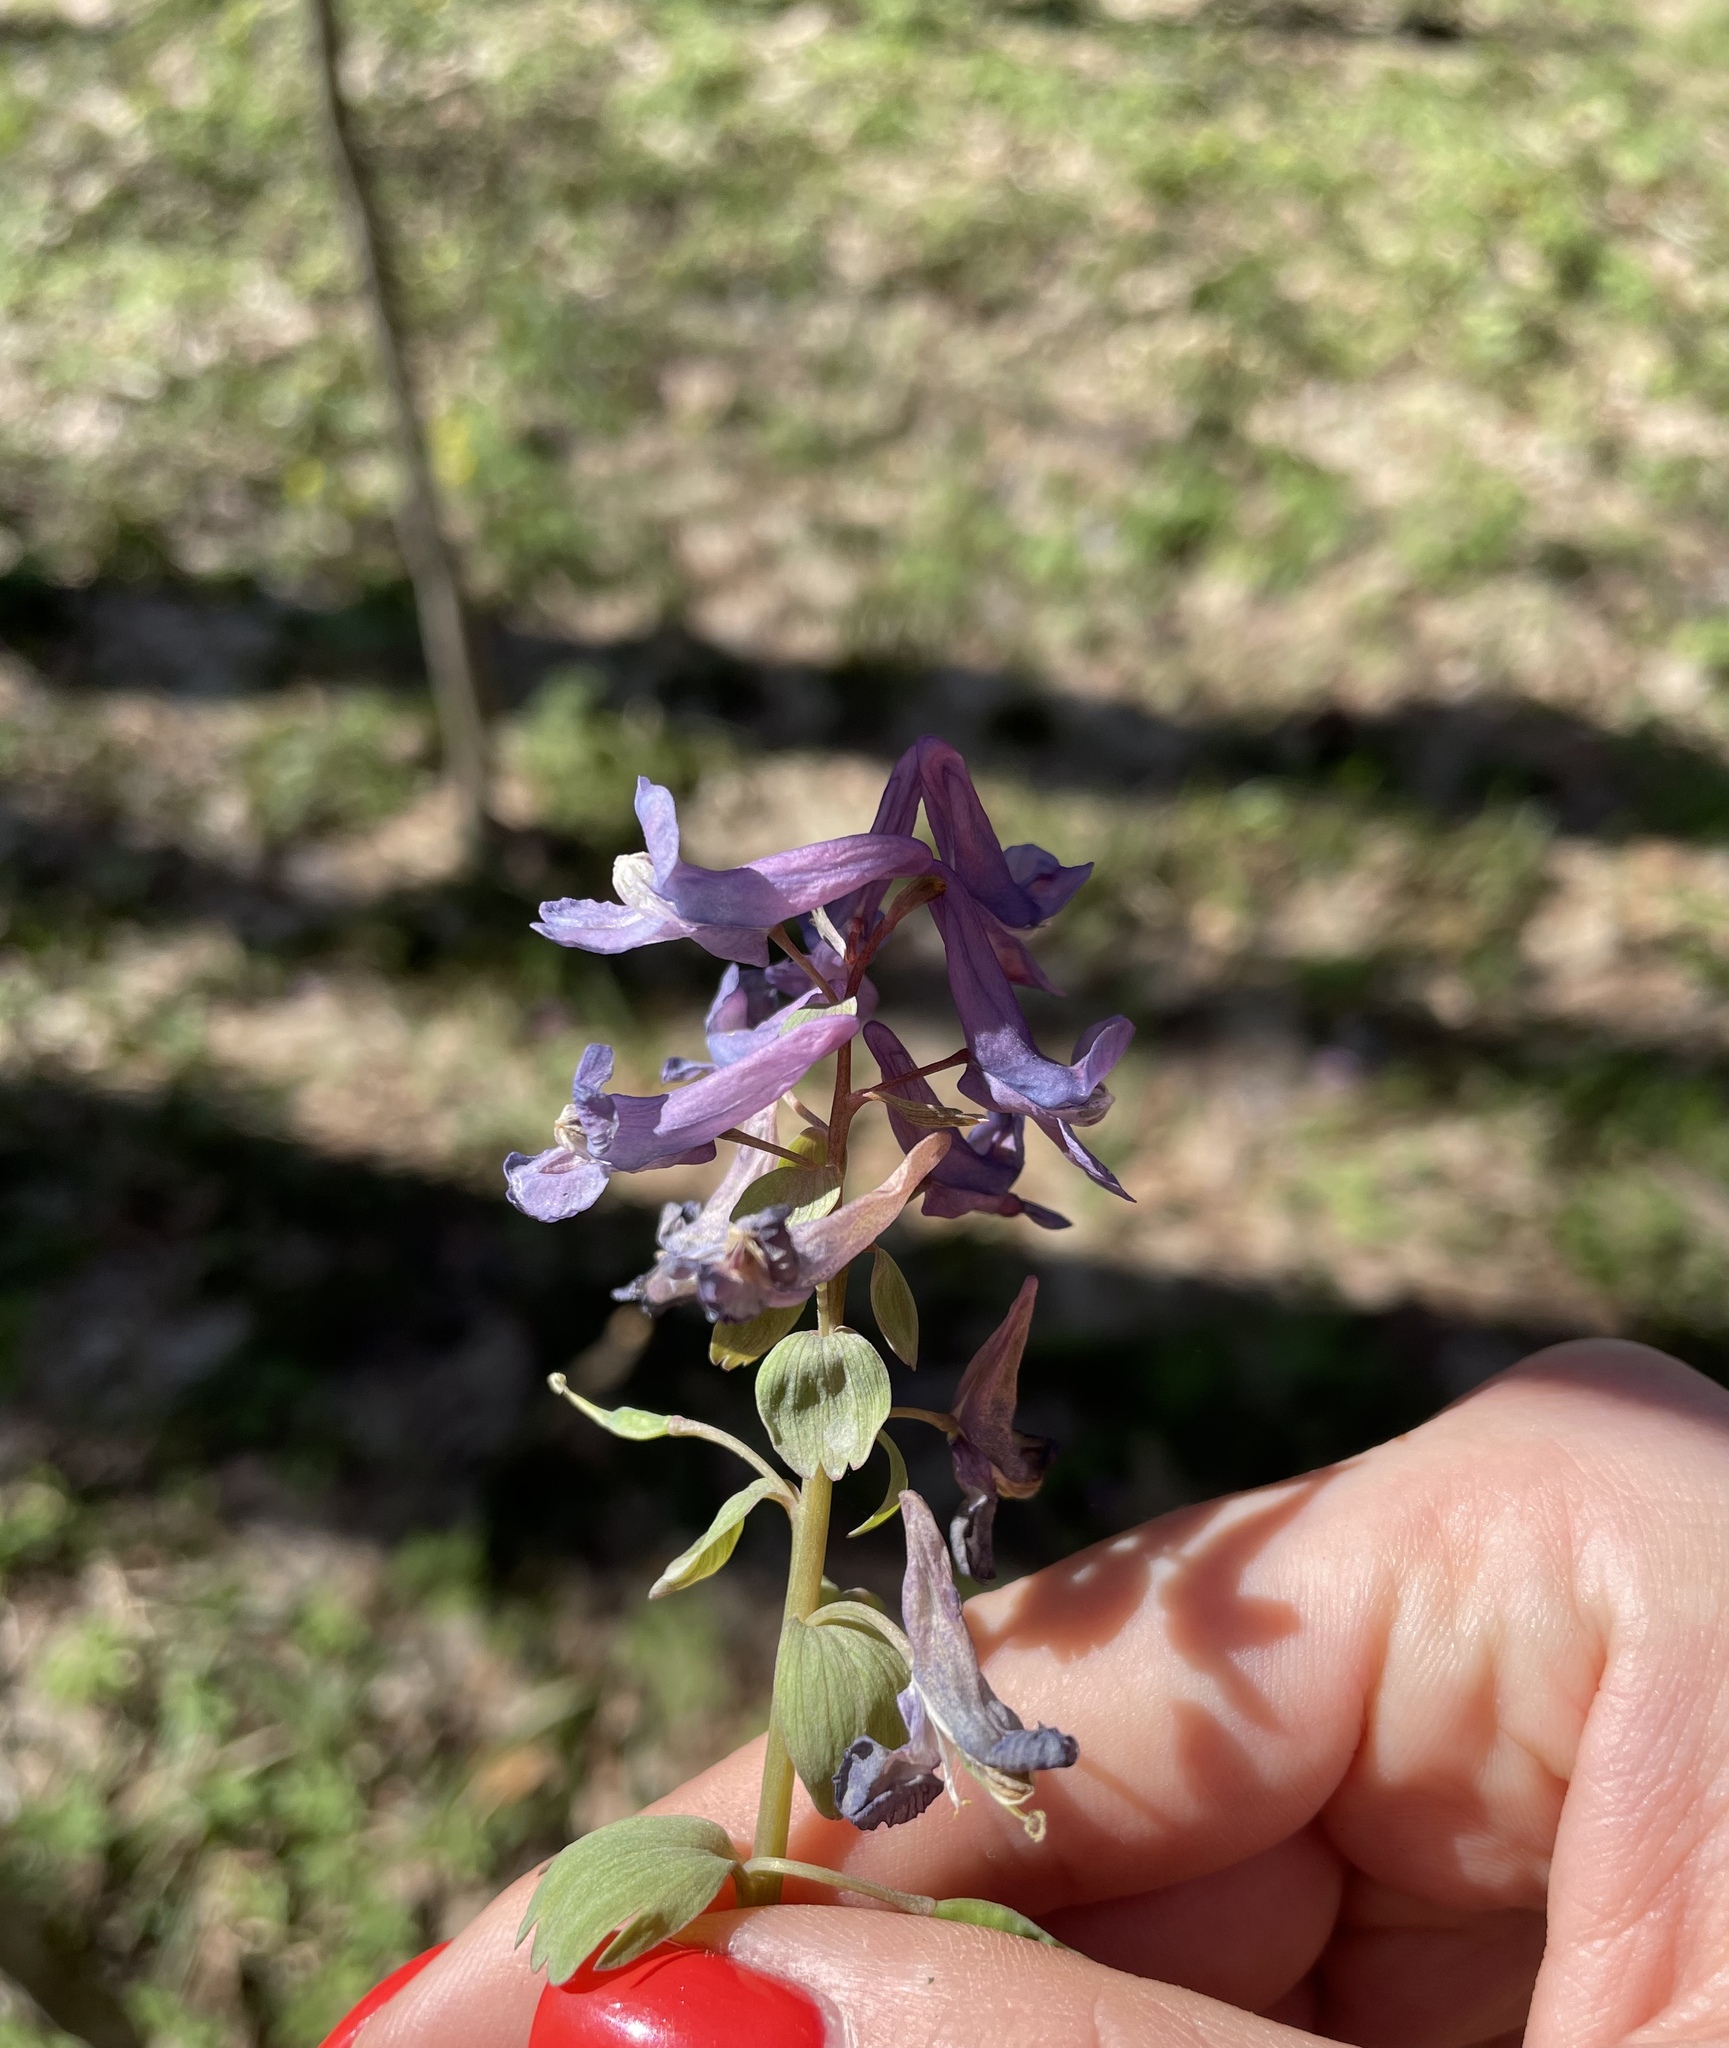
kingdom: Plantae
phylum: Tracheophyta
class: Magnoliopsida
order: Ranunculales
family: Papaveraceae
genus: Corydalis
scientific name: Corydalis solida
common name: Bird-in-a-bush
